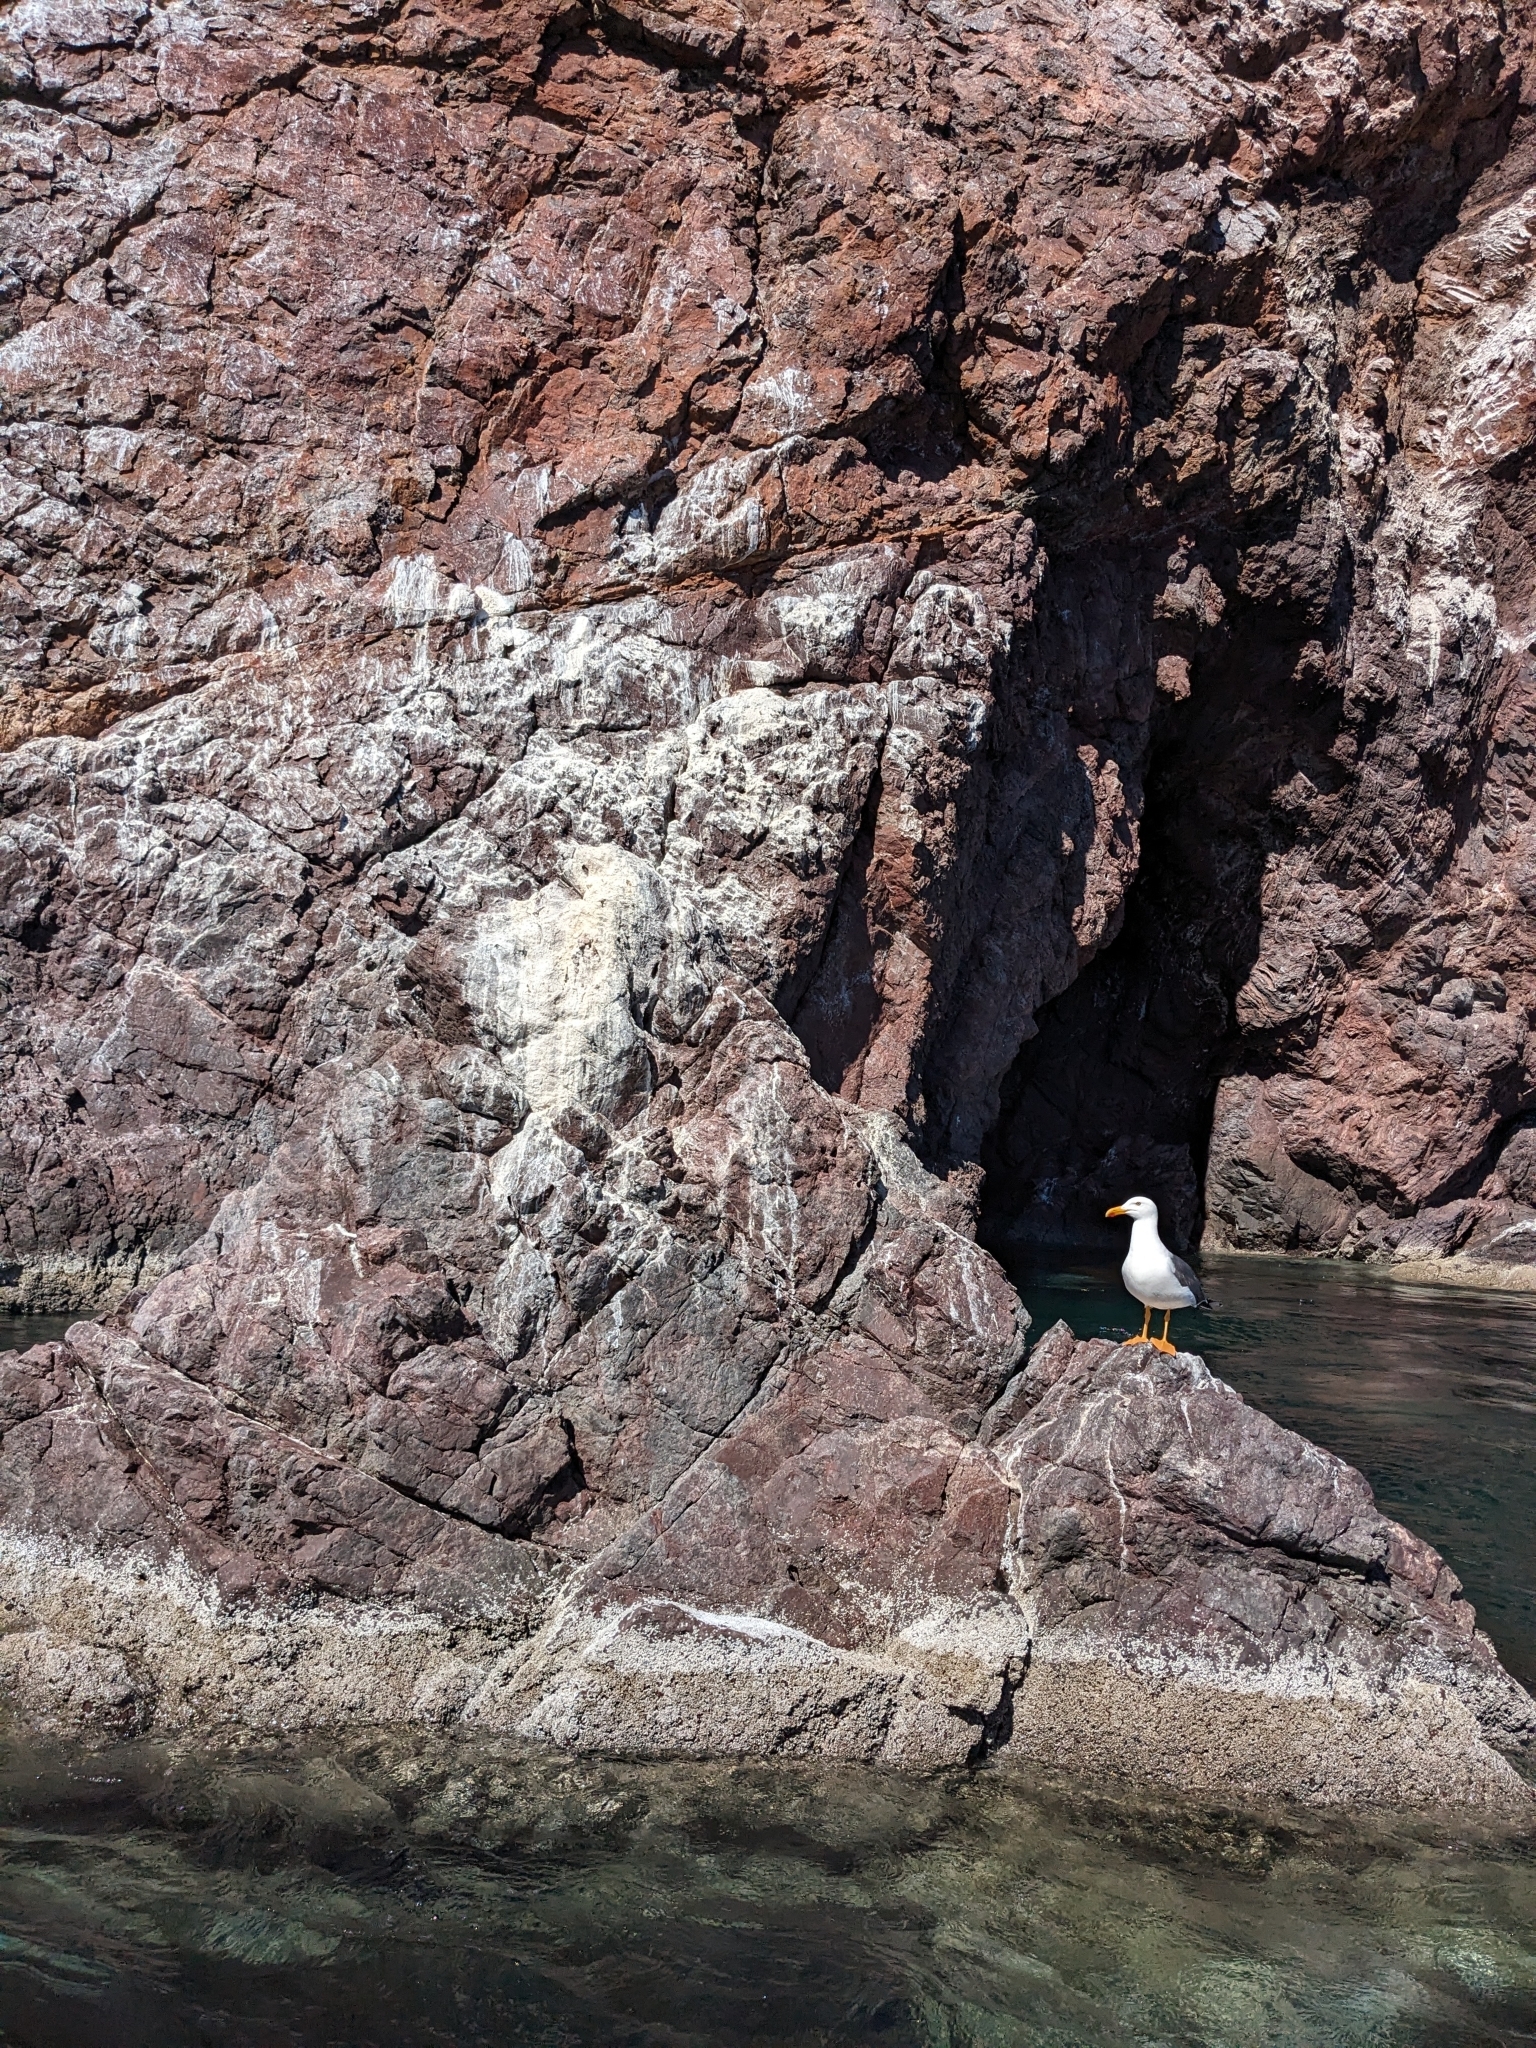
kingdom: Animalia
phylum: Chordata
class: Aves
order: Charadriiformes
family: Laridae
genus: Larus
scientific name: Larus livens
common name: Yellow-footed gull
